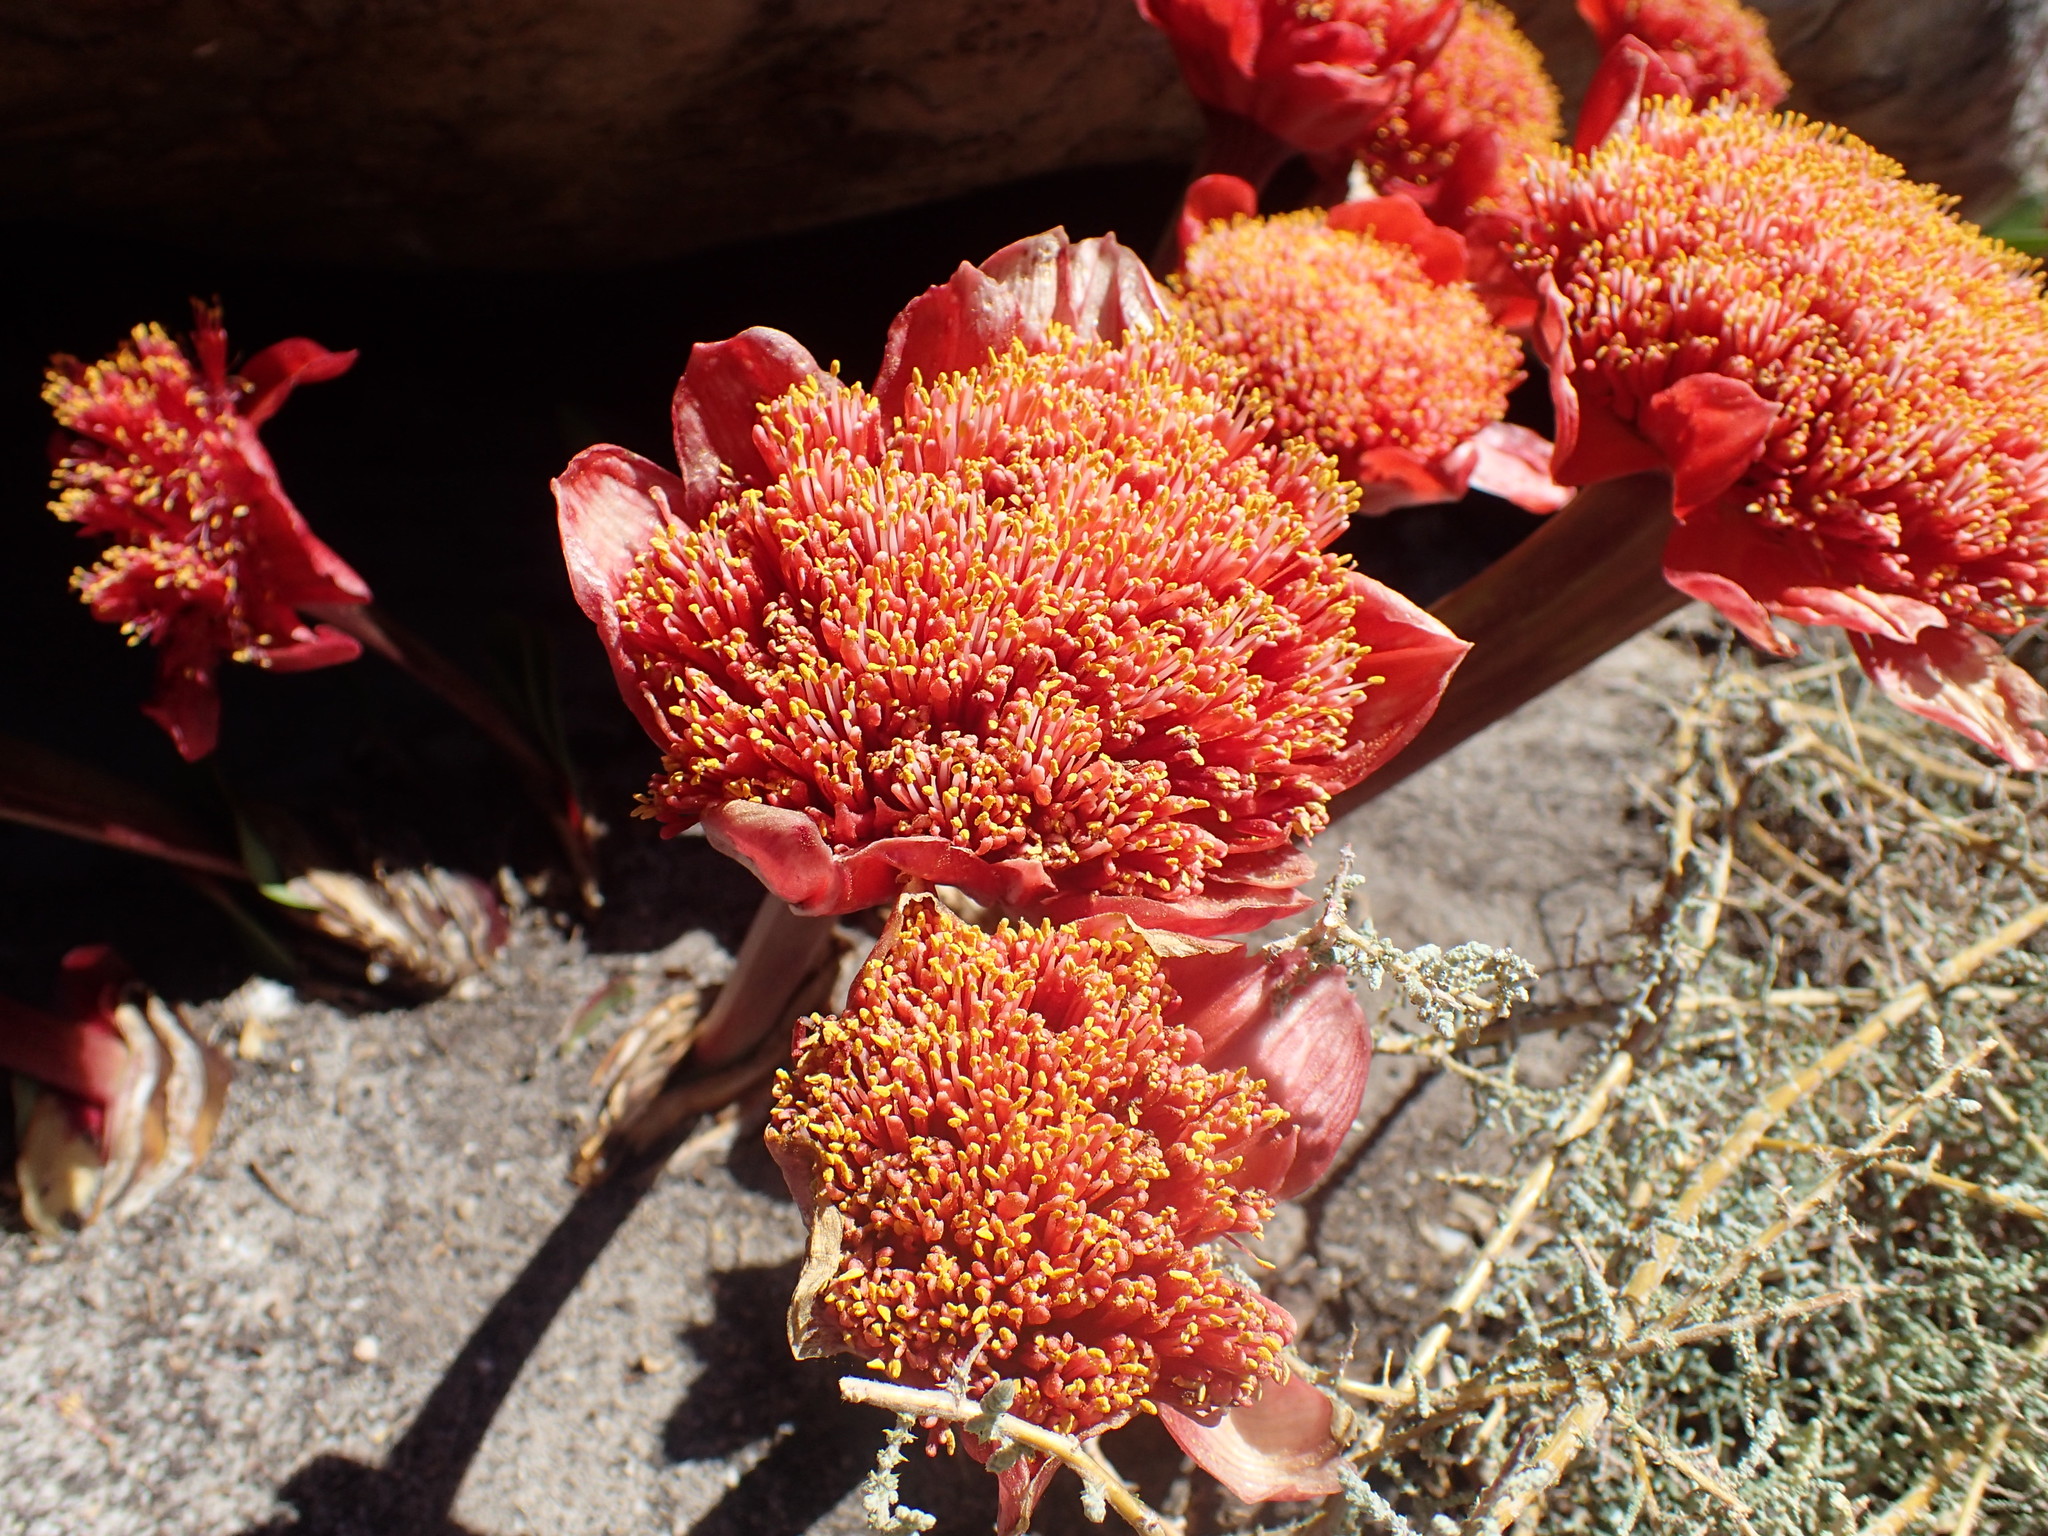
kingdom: Plantae
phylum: Tracheophyta
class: Liliopsida
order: Asparagales
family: Amaryllidaceae
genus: Haemanthus
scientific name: Haemanthus coccineus
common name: Cape-tulip
